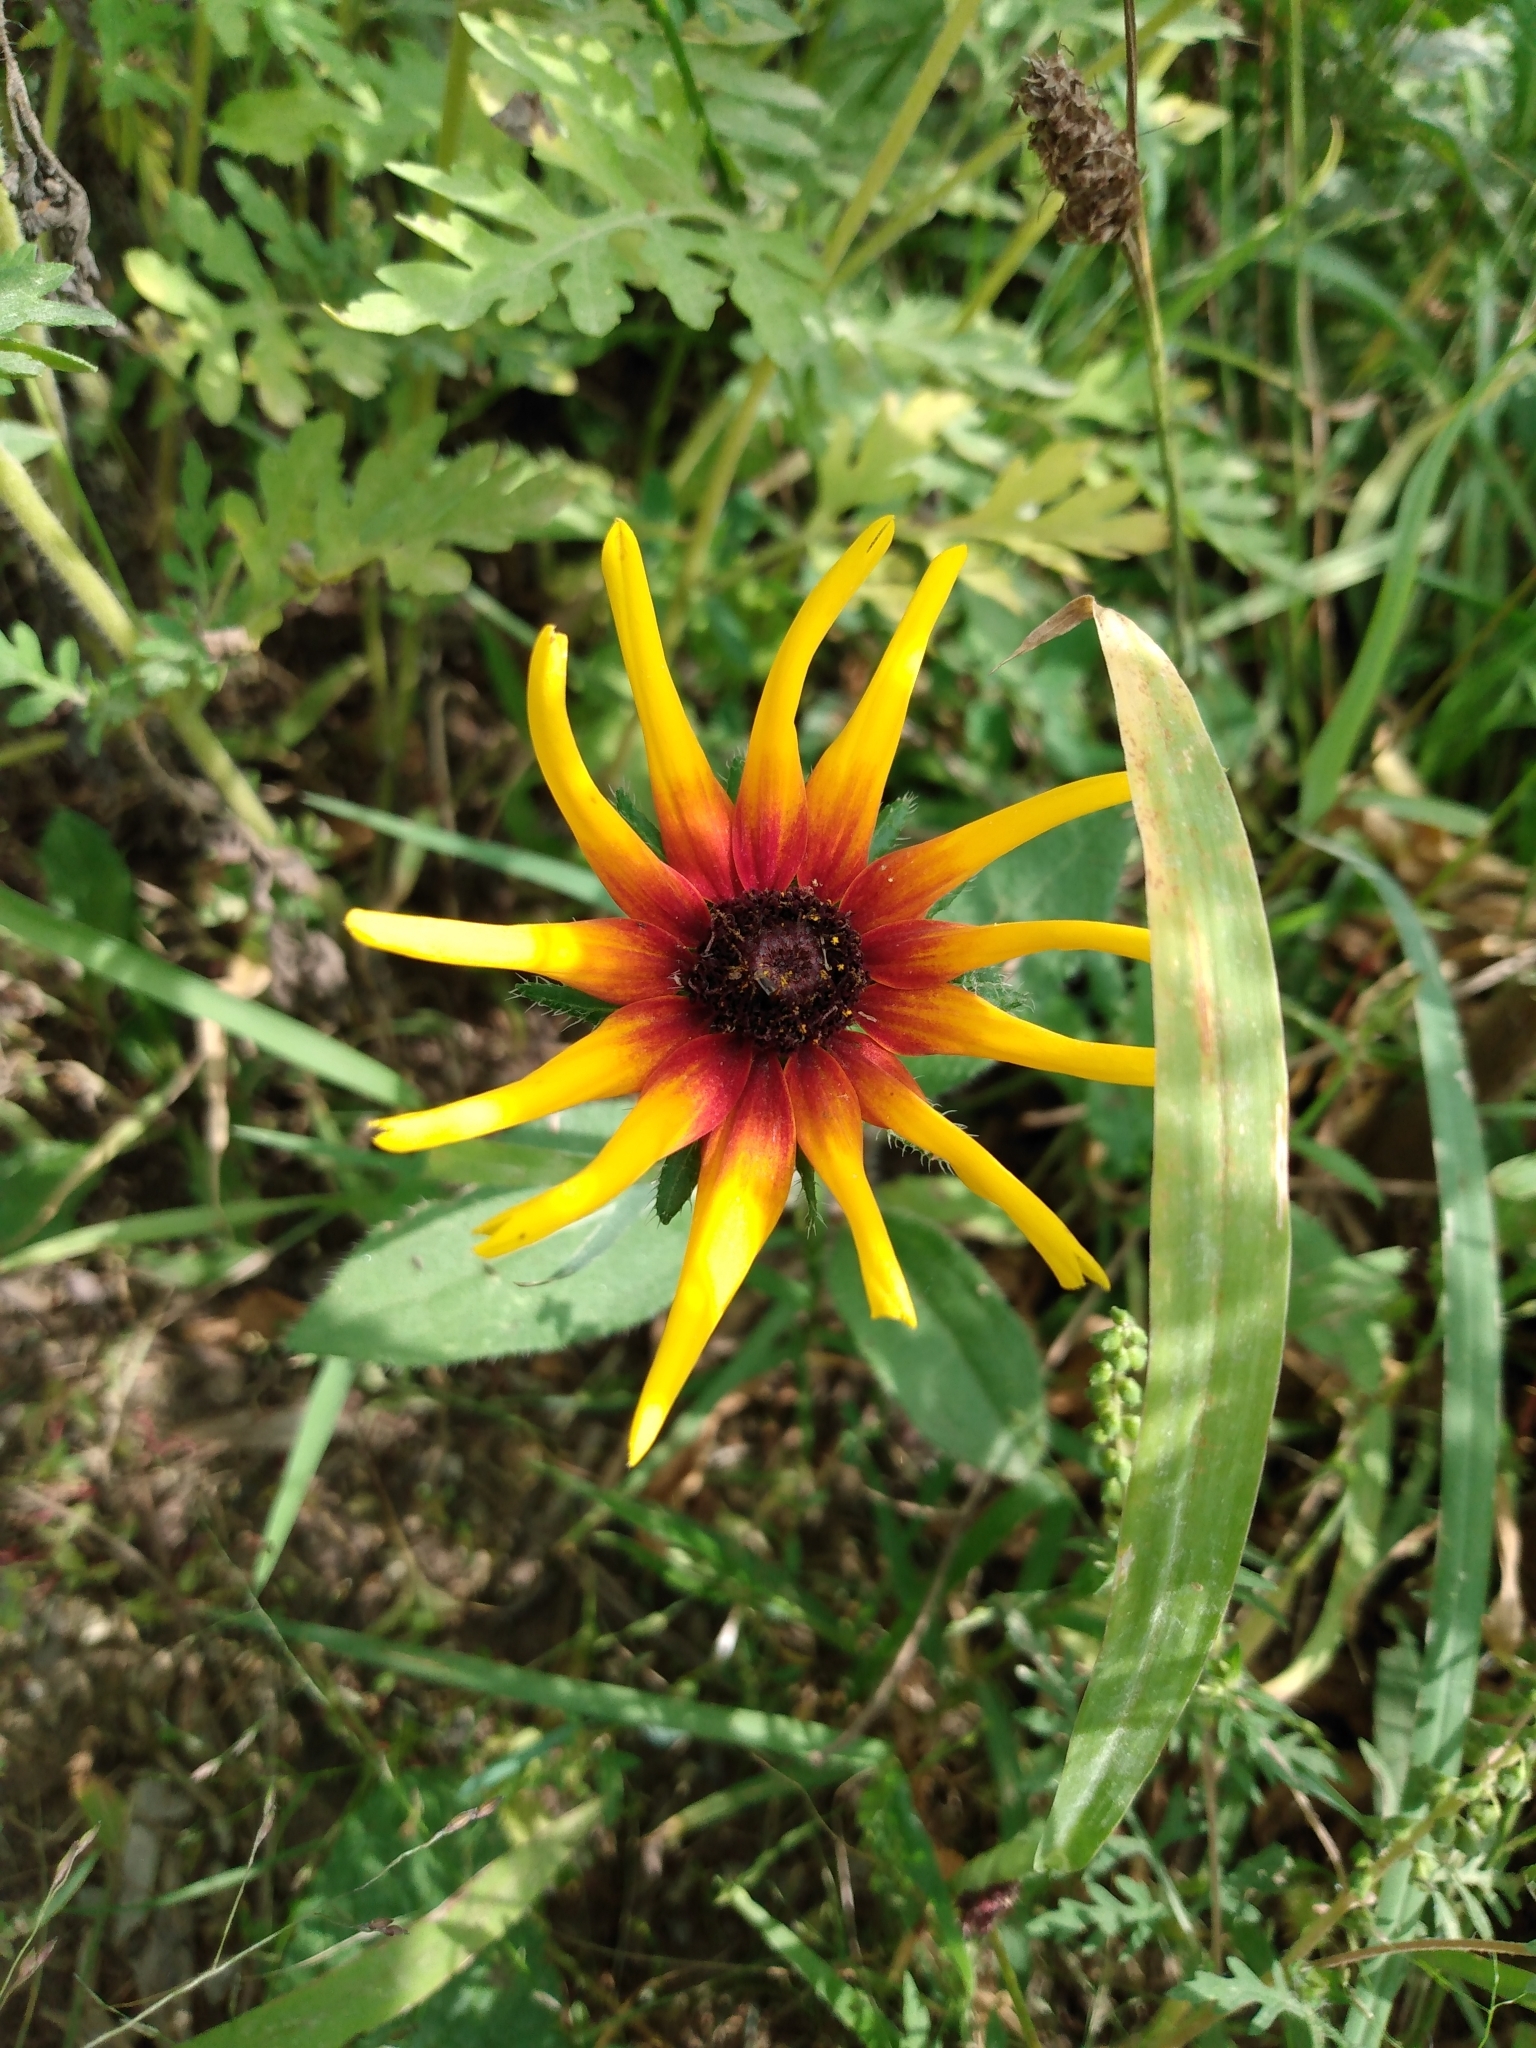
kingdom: Plantae
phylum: Tracheophyta
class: Magnoliopsida
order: Asterales
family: Asteraceae
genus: Rudbeckia
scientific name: Rudbeckia hirta
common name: Black-eyed-susan
